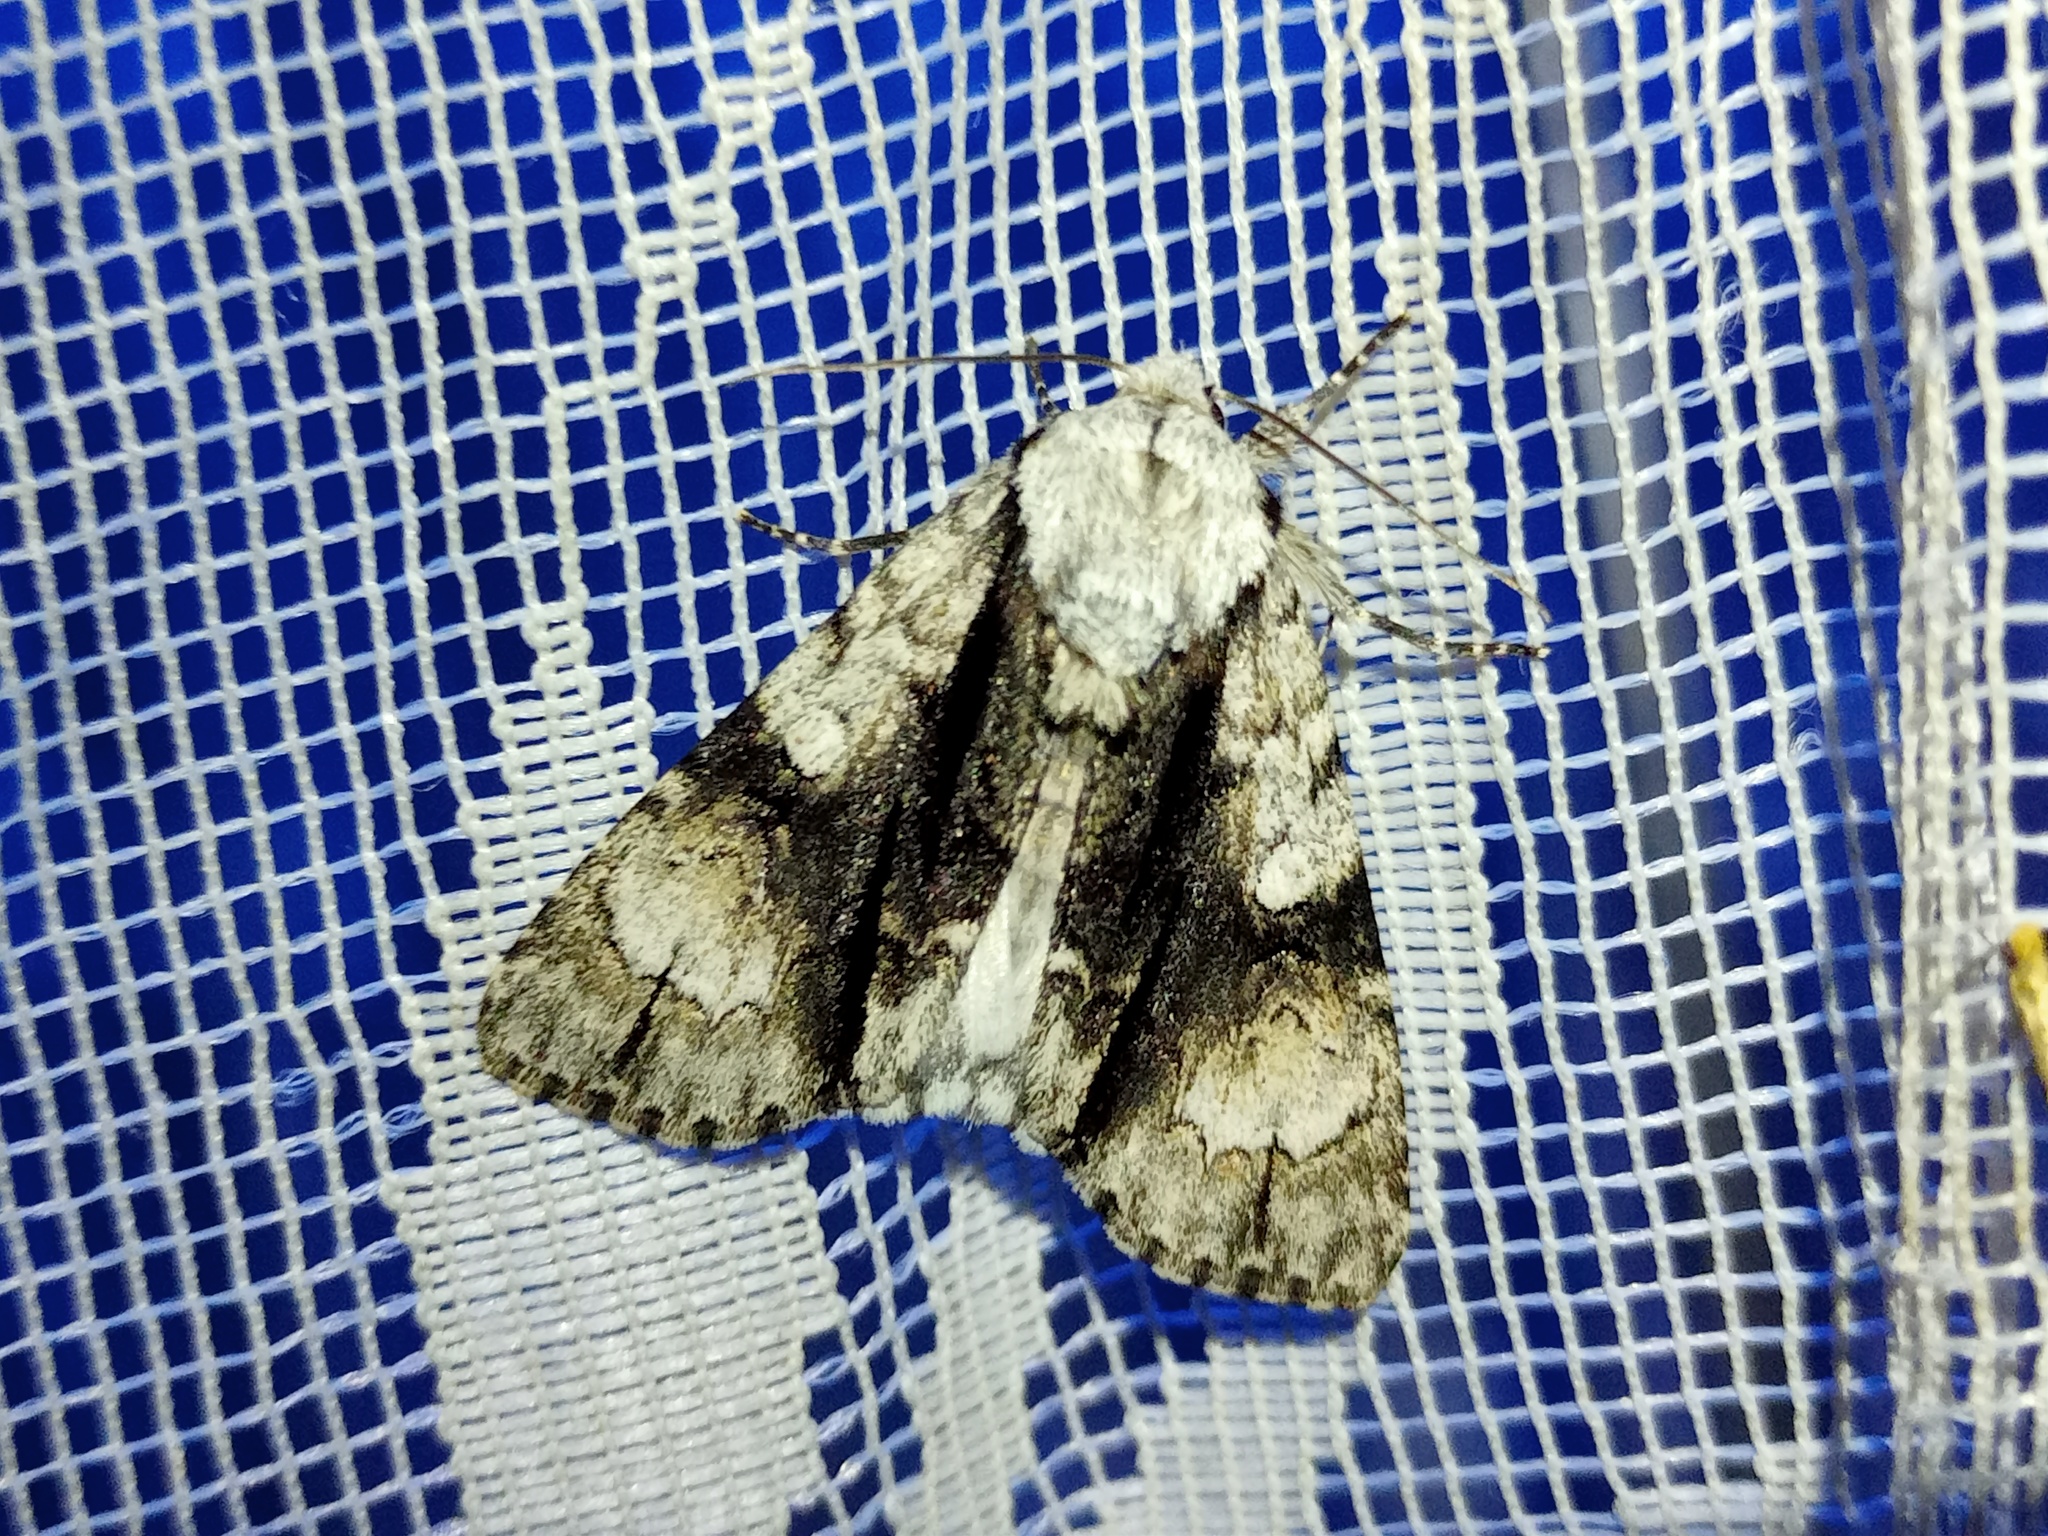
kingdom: Animalia
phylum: Arthropoda
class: Insecta
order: Lepidoptera
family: Noctuidae
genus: Acronicta
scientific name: Acronicta alni
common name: Alder moth
